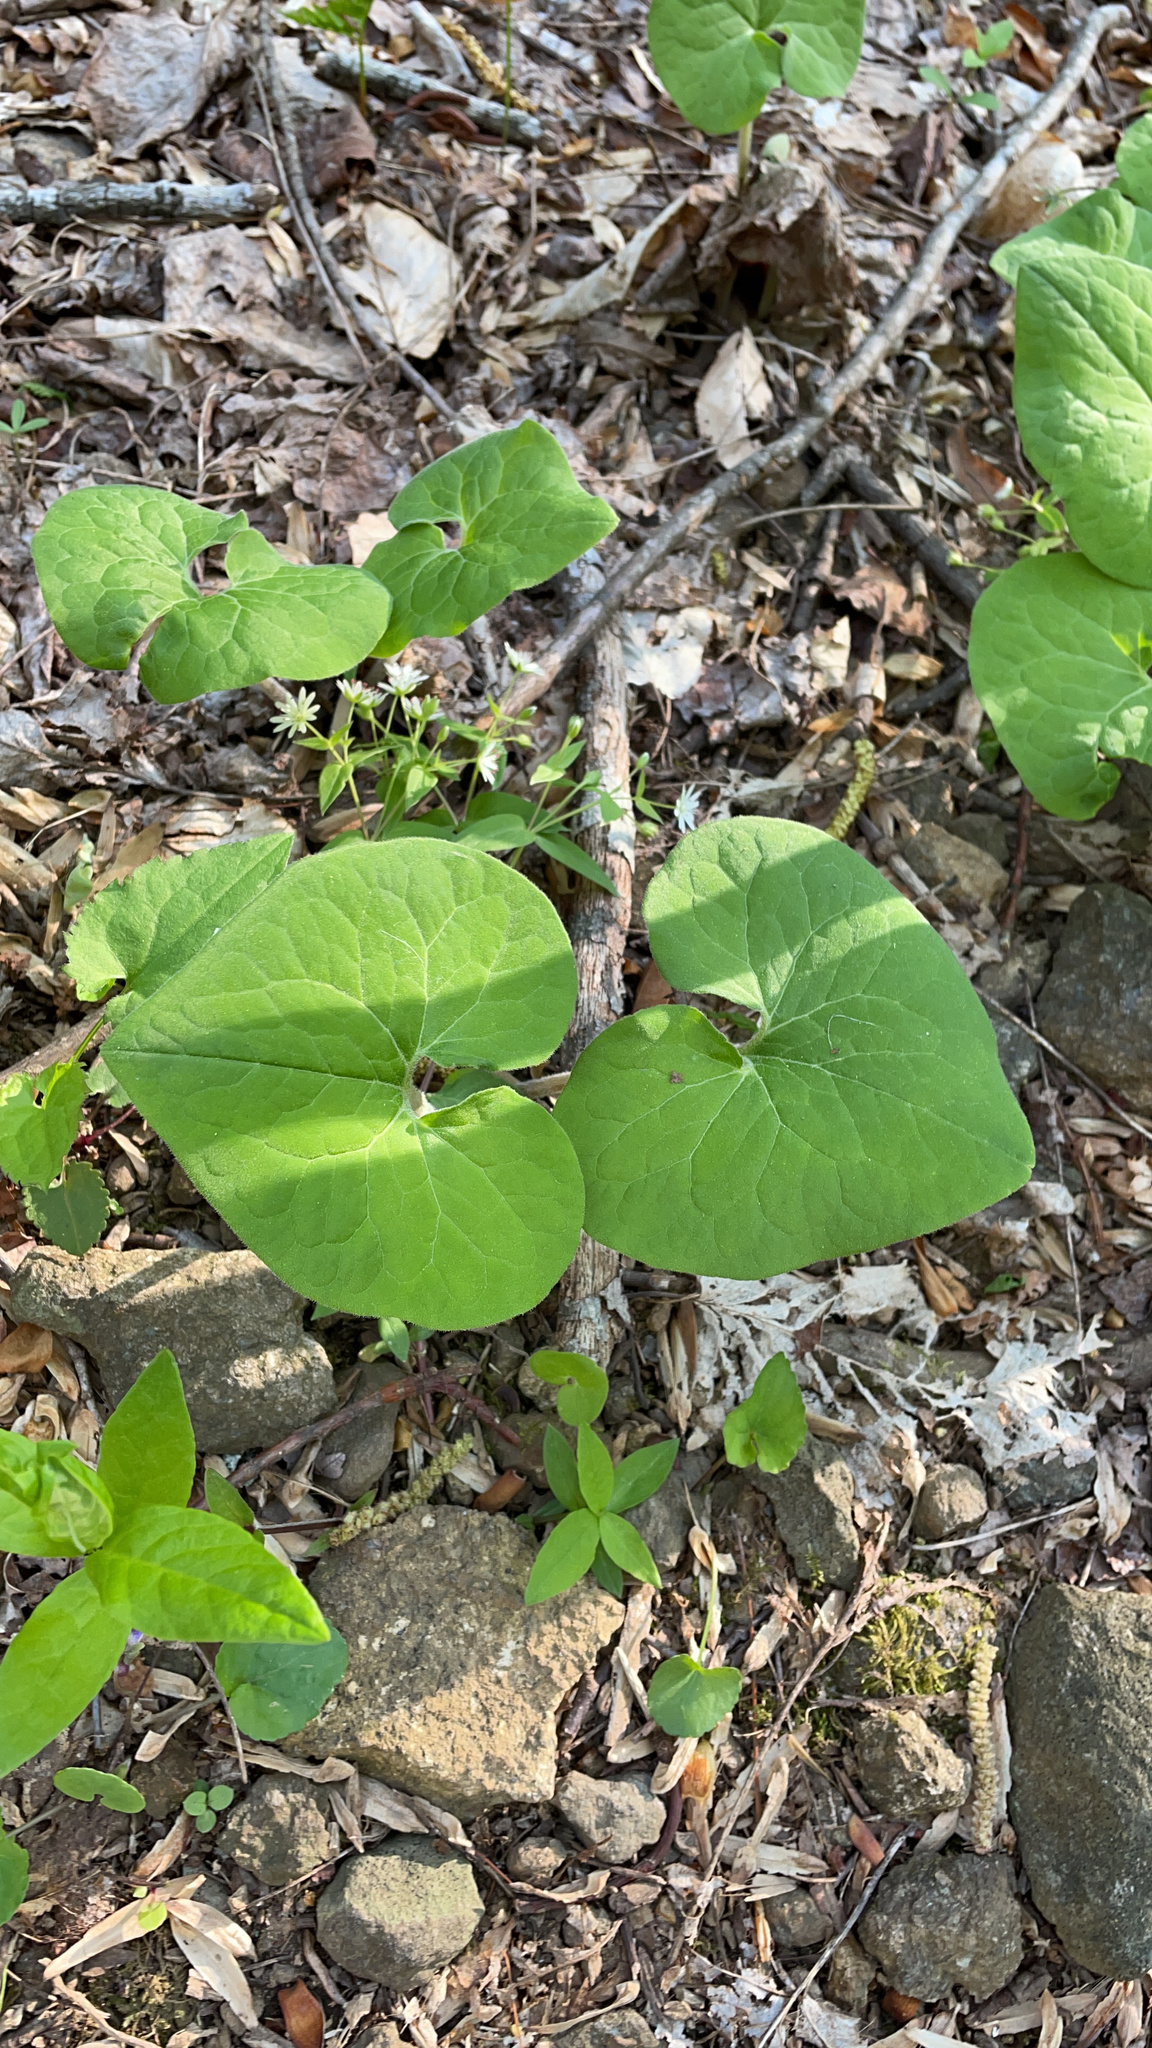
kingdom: Plantae
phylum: Tracheophyta
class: Magnoliopsida
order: Piperales
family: Aristolochiaceae
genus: Asarum
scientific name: Asarum canadense
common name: Wild ginger
